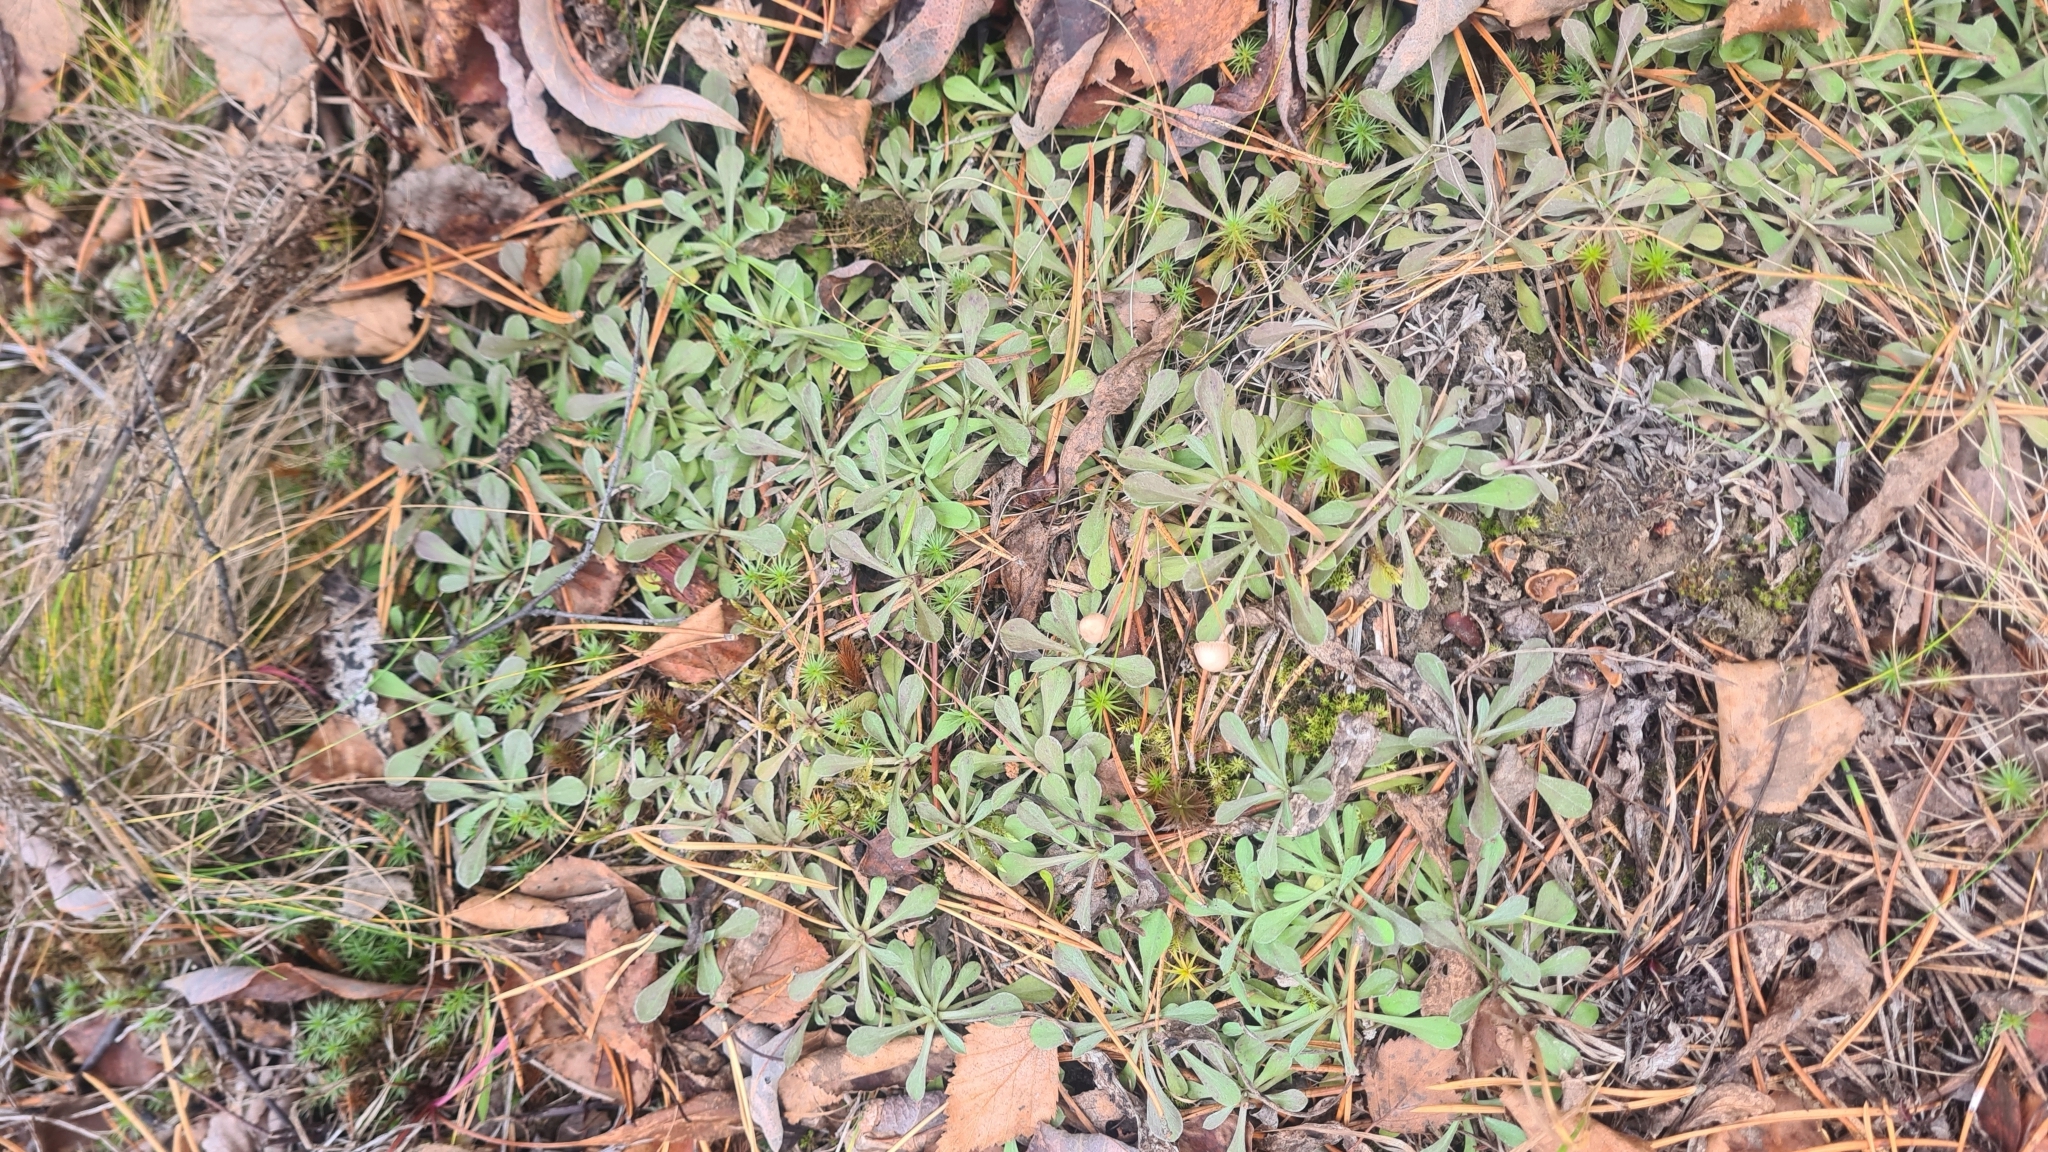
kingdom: Plantae
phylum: Tracheophyta
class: Magnoliopsida
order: Asterales
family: Asteraceae
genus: Antennaria
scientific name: Antennaria dioica
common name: Mountain everlasting
